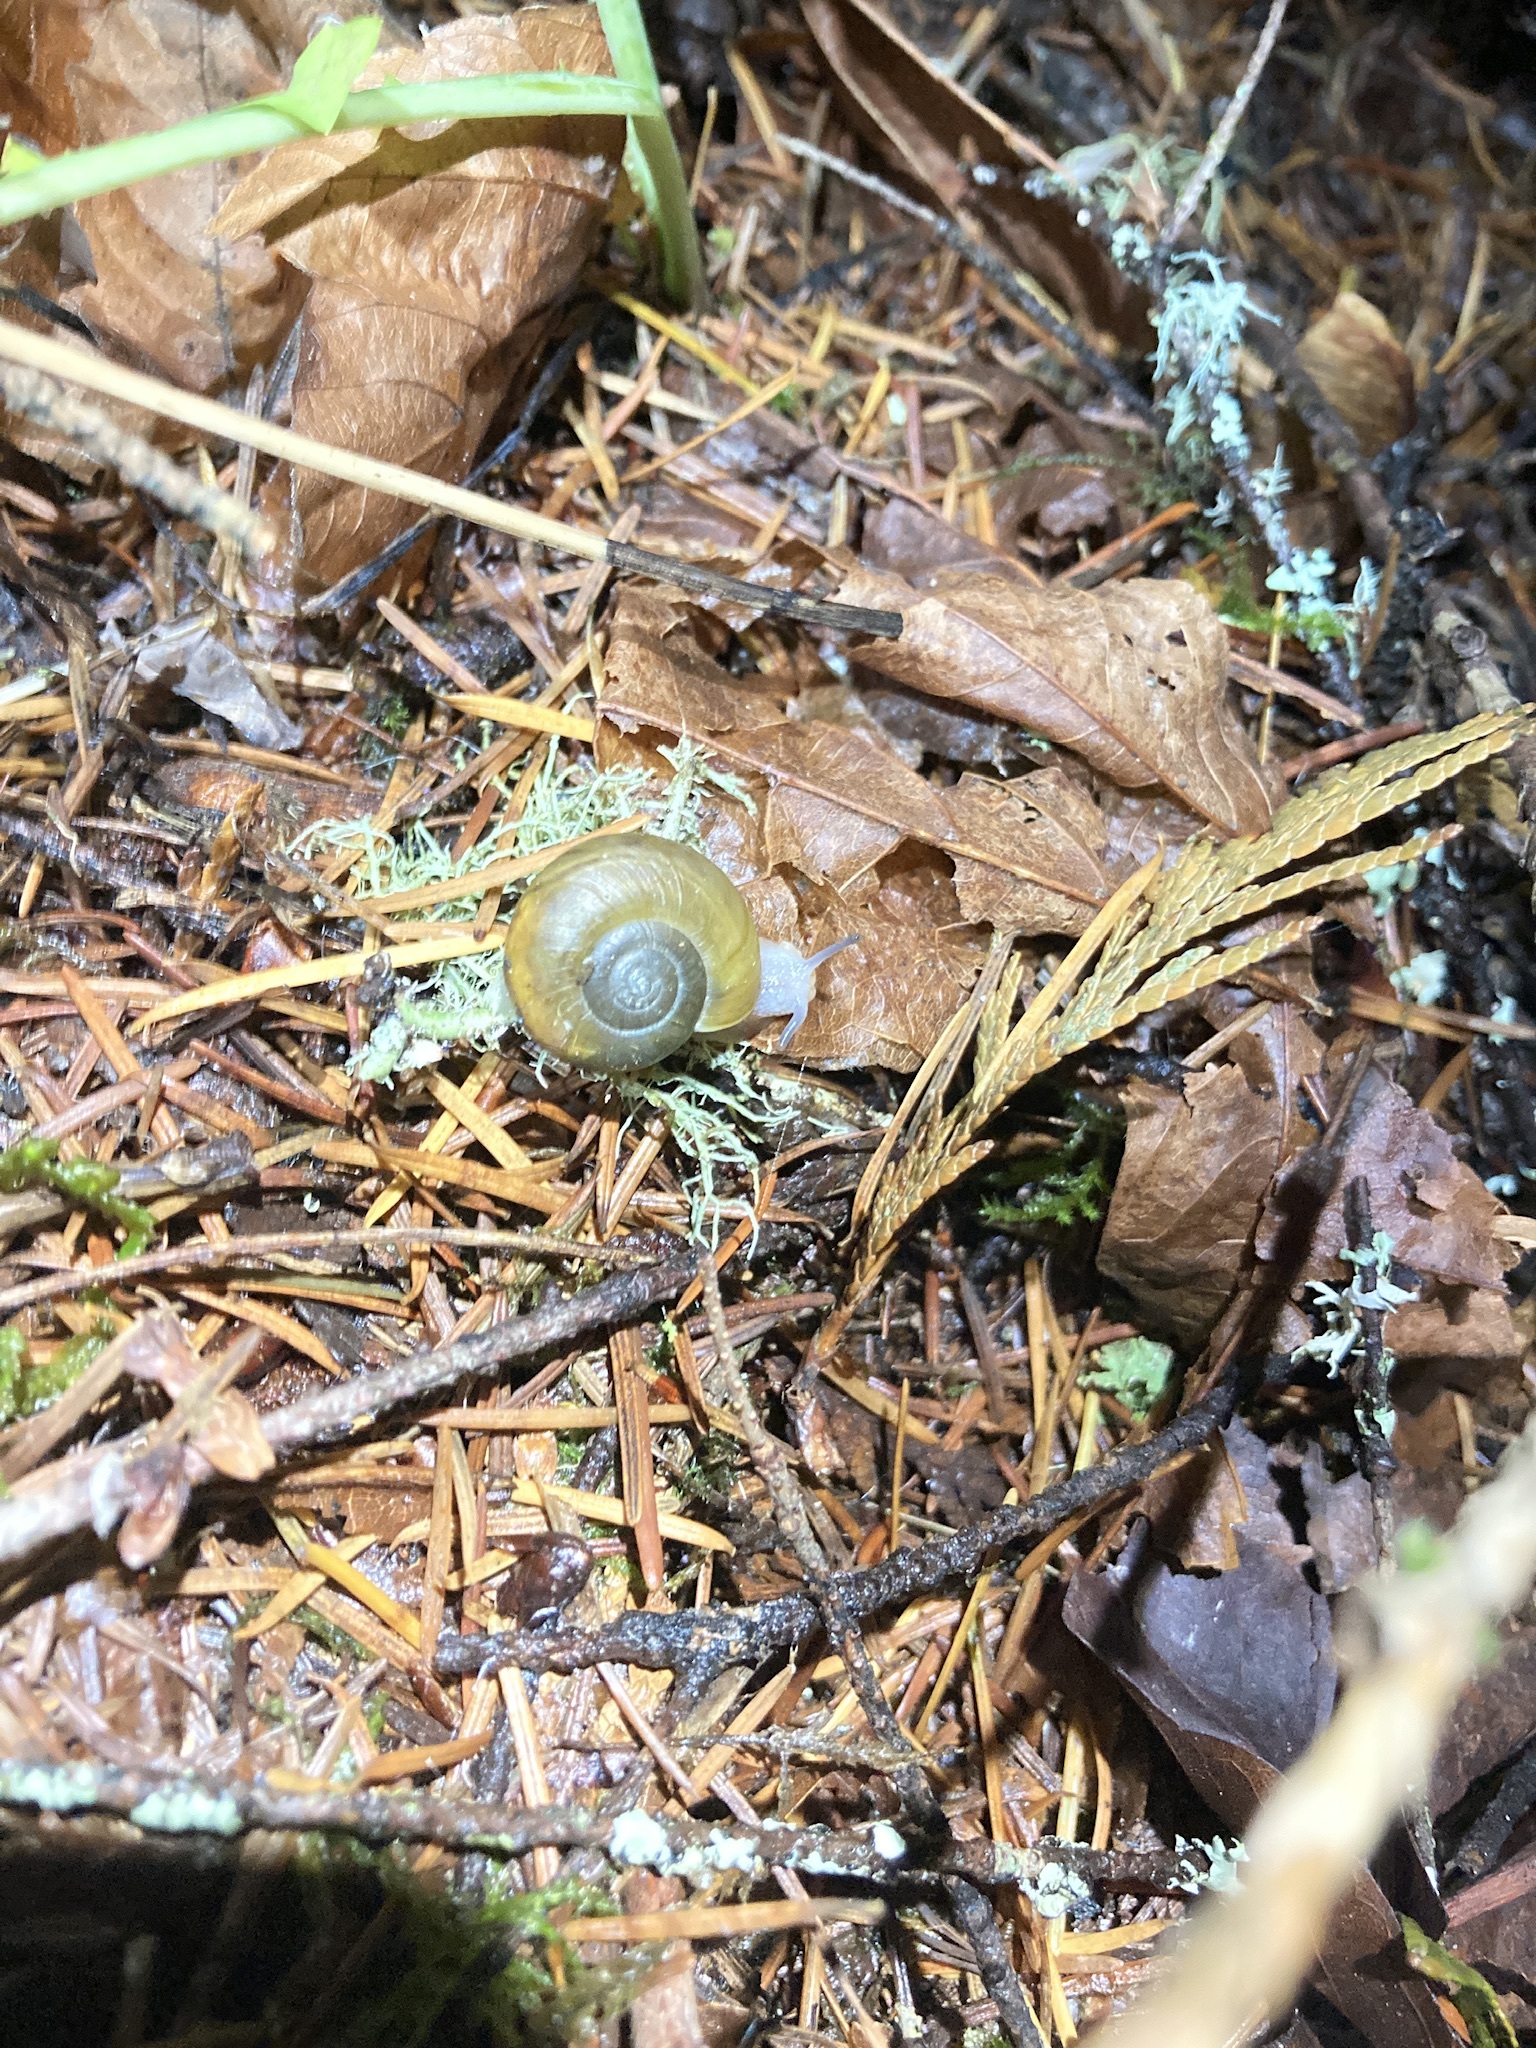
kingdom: Animalia
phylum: Mollusca
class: Gastropoda
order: Stylommatophora
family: Haplotrematidae
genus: Haplotrema
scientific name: Haplotrema vancouverense
